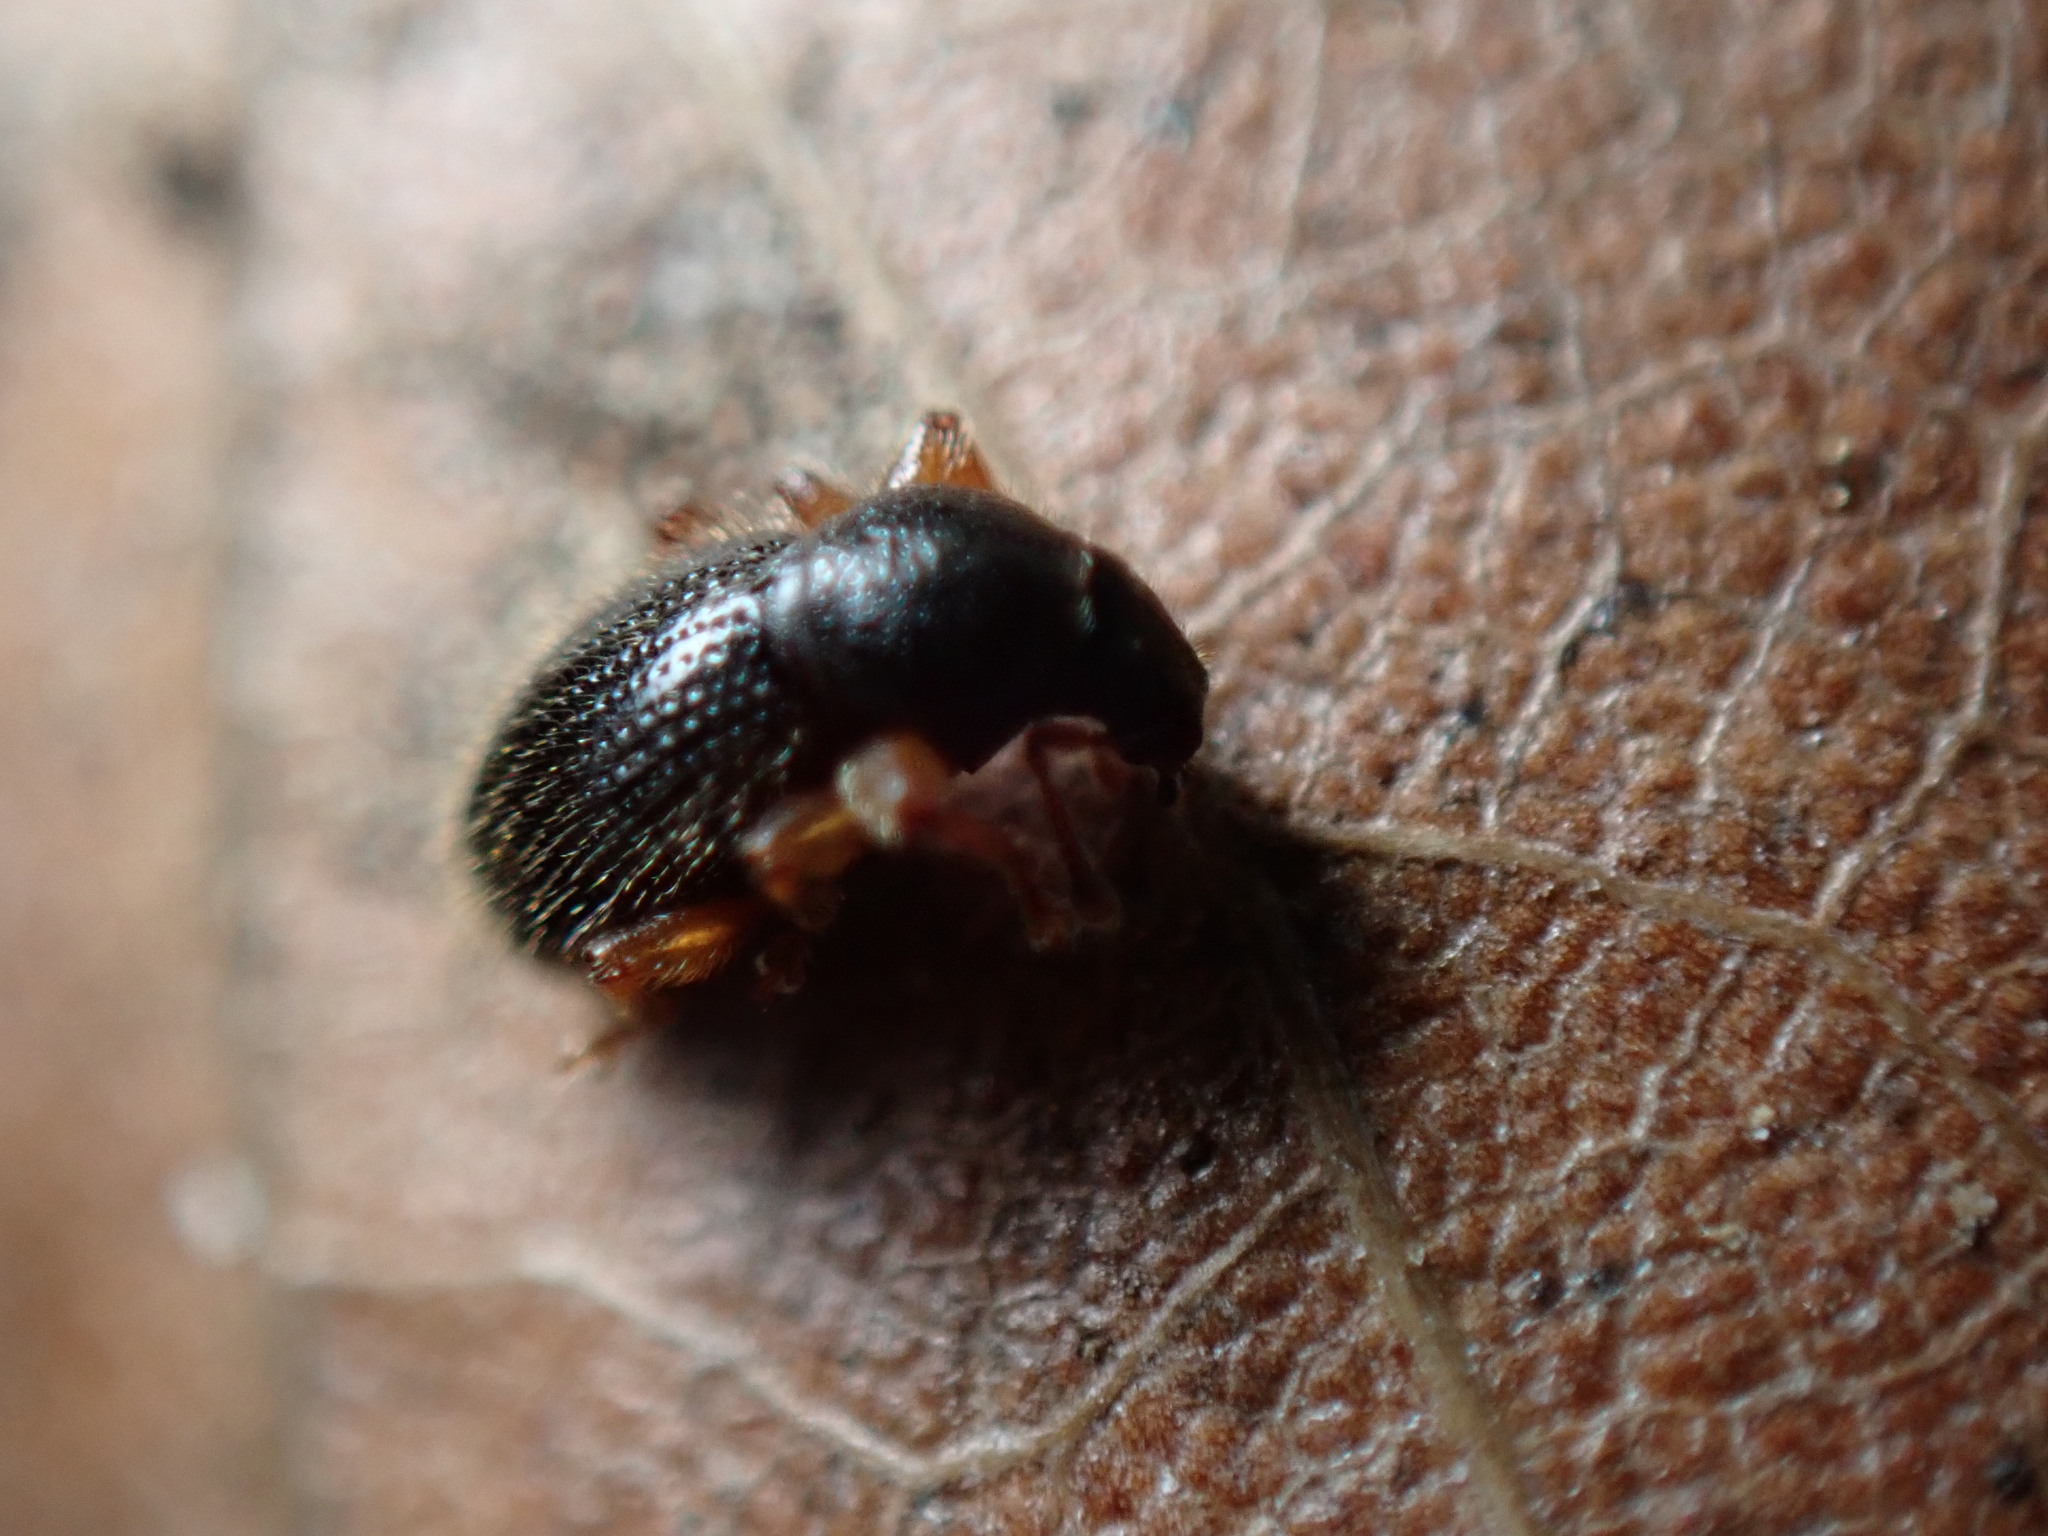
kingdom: Animalia
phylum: Arthropoda
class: Insecta
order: Coleoptera
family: Curculionidae
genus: Exomias
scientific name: Exomias pellucidus
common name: Hairy spider weevil
